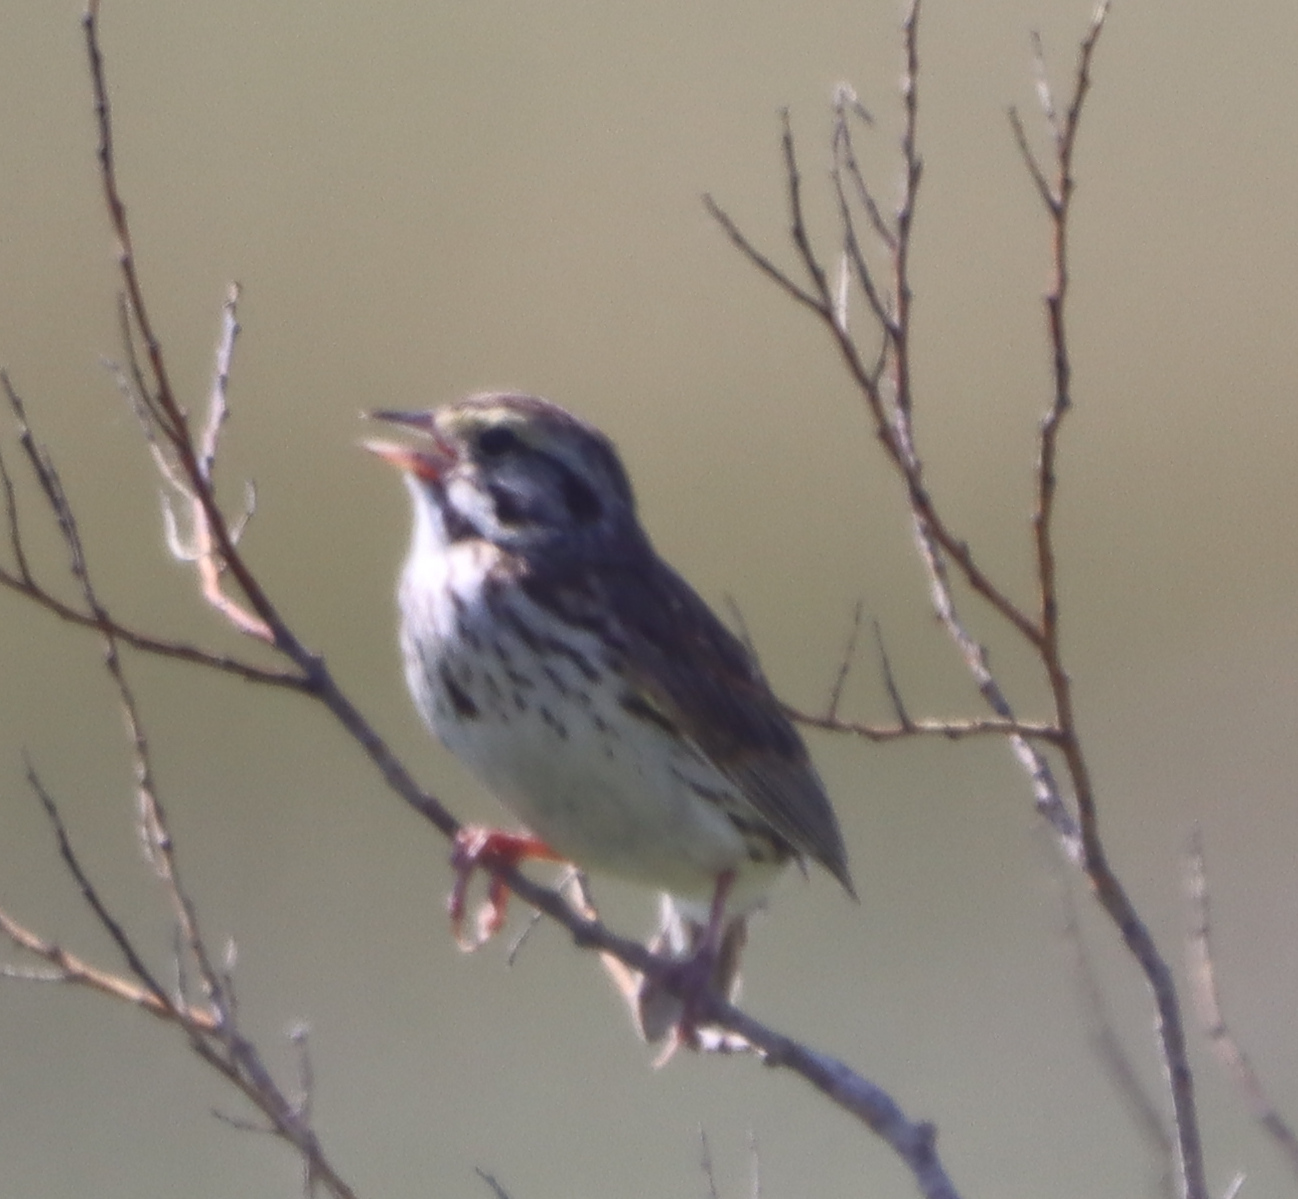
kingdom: Animalia
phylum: Chordata
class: Aves
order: Passeriformes
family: Passerellidae
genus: Passerculus
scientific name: Passerculus sandwichensis
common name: Savannah sparrow
